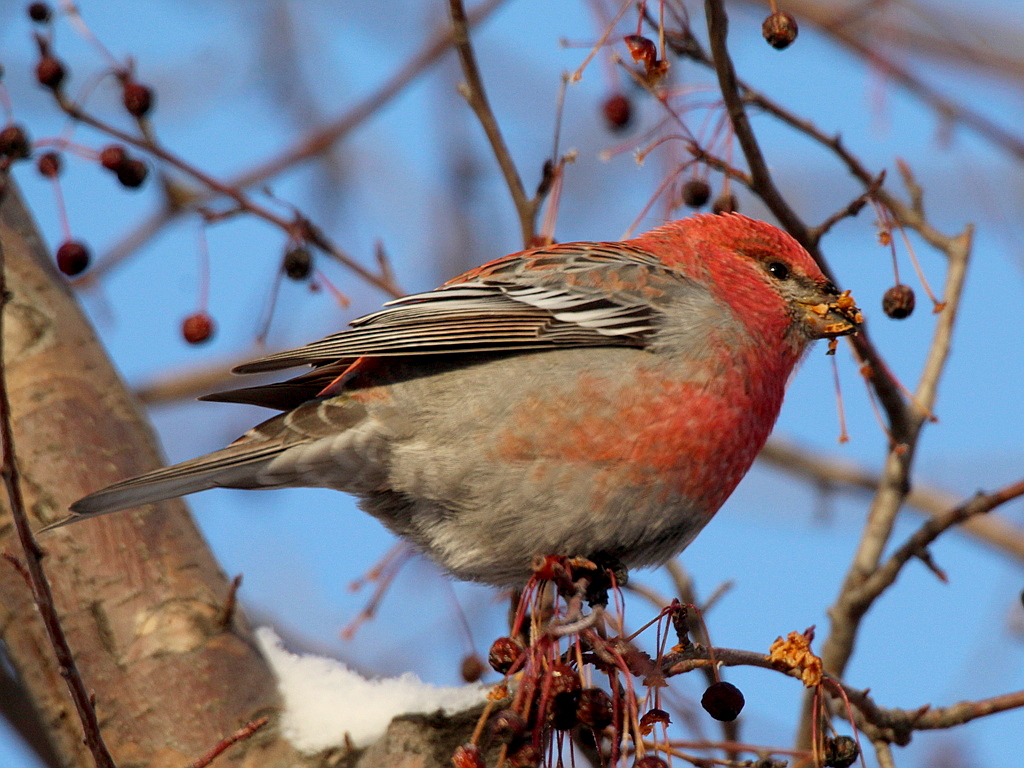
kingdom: Animalia
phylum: Chordata
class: Aves
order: Passeriformes
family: Fringillidae
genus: Pinicola
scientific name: Pinicola enucleator
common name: Pine grosbeak
